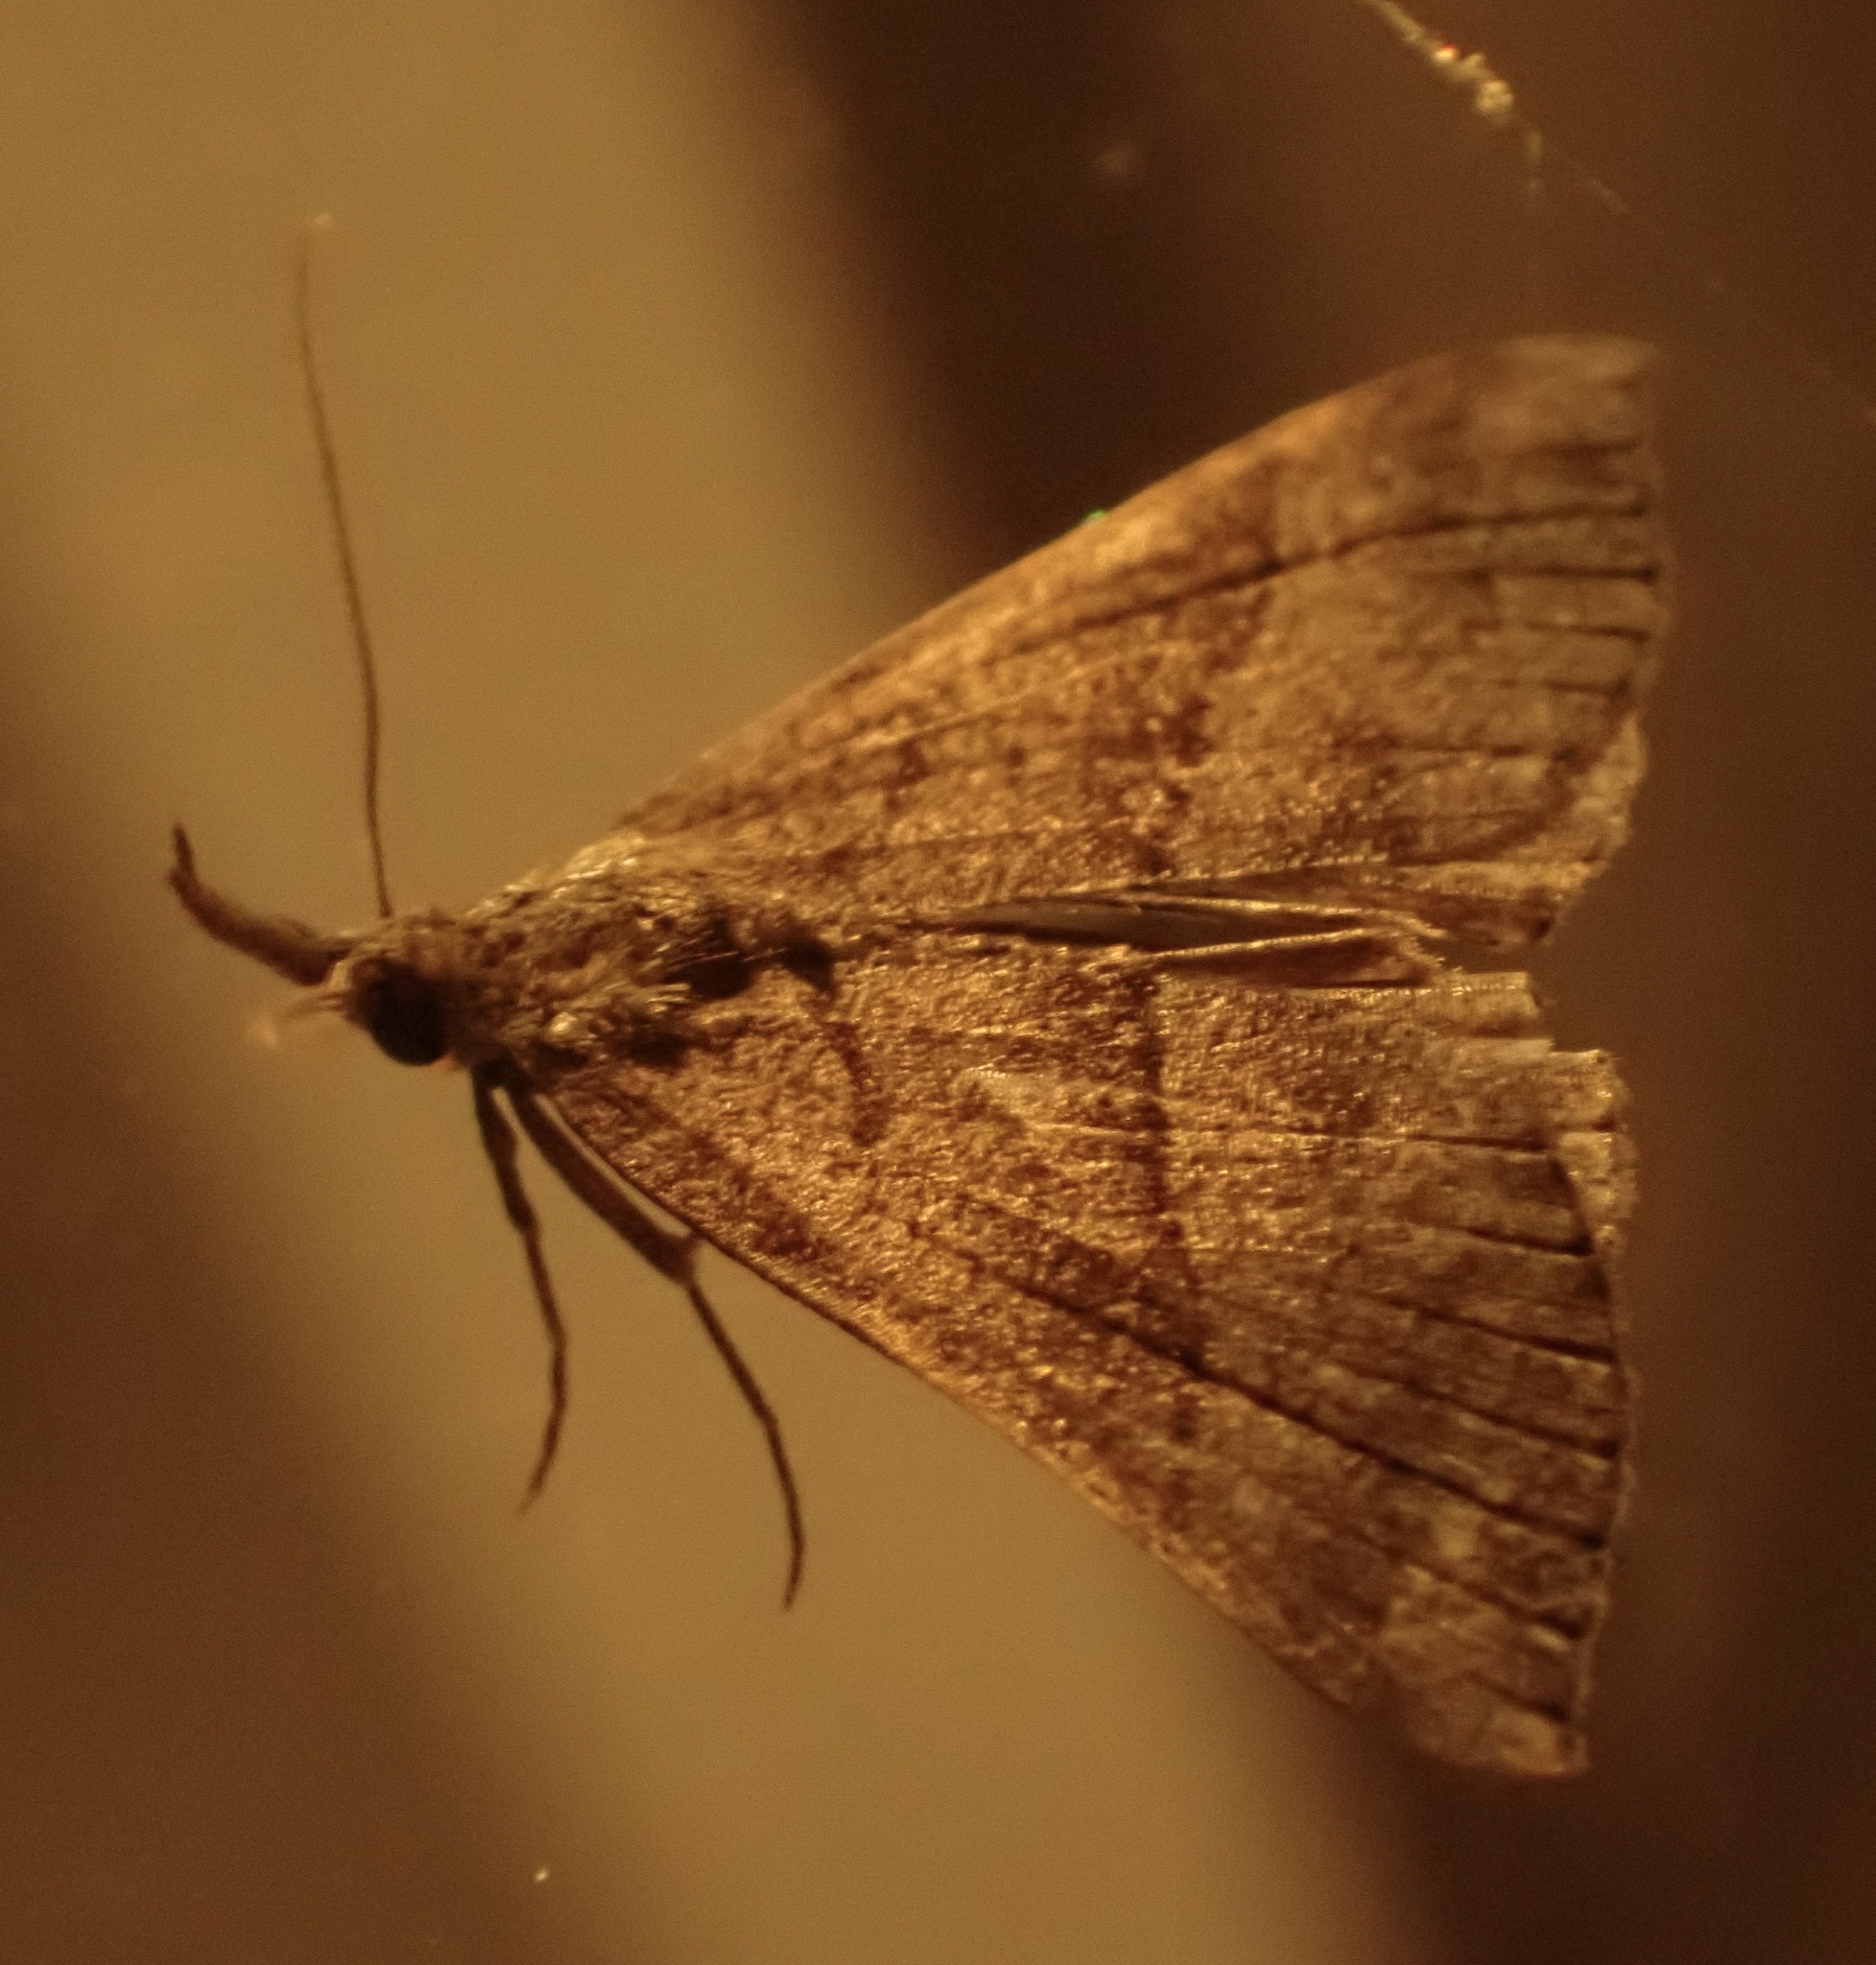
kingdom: Animalia
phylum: Arthropoda
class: Insecta
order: Lepidoptera
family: Erebidae
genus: Hypena
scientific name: Hypena proboscidalis
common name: Snout
